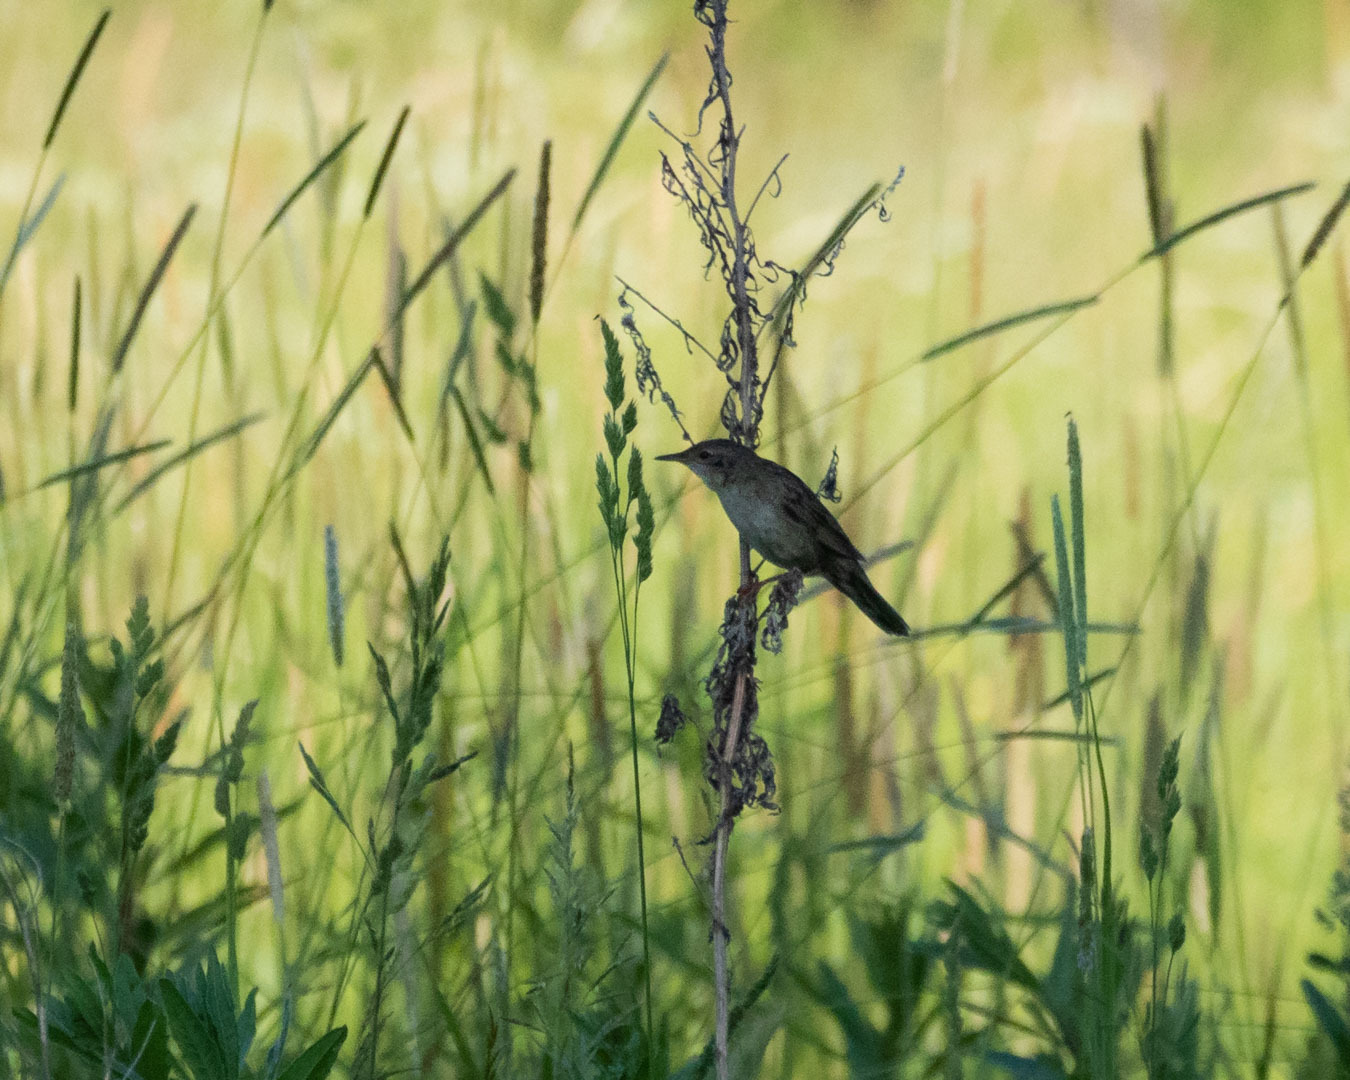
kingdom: Animalia
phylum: Chordata
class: Aves
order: Passeriformes
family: Locustellidae
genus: Locustella
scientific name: Locustella naevia
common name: Common grasshopper warbler
